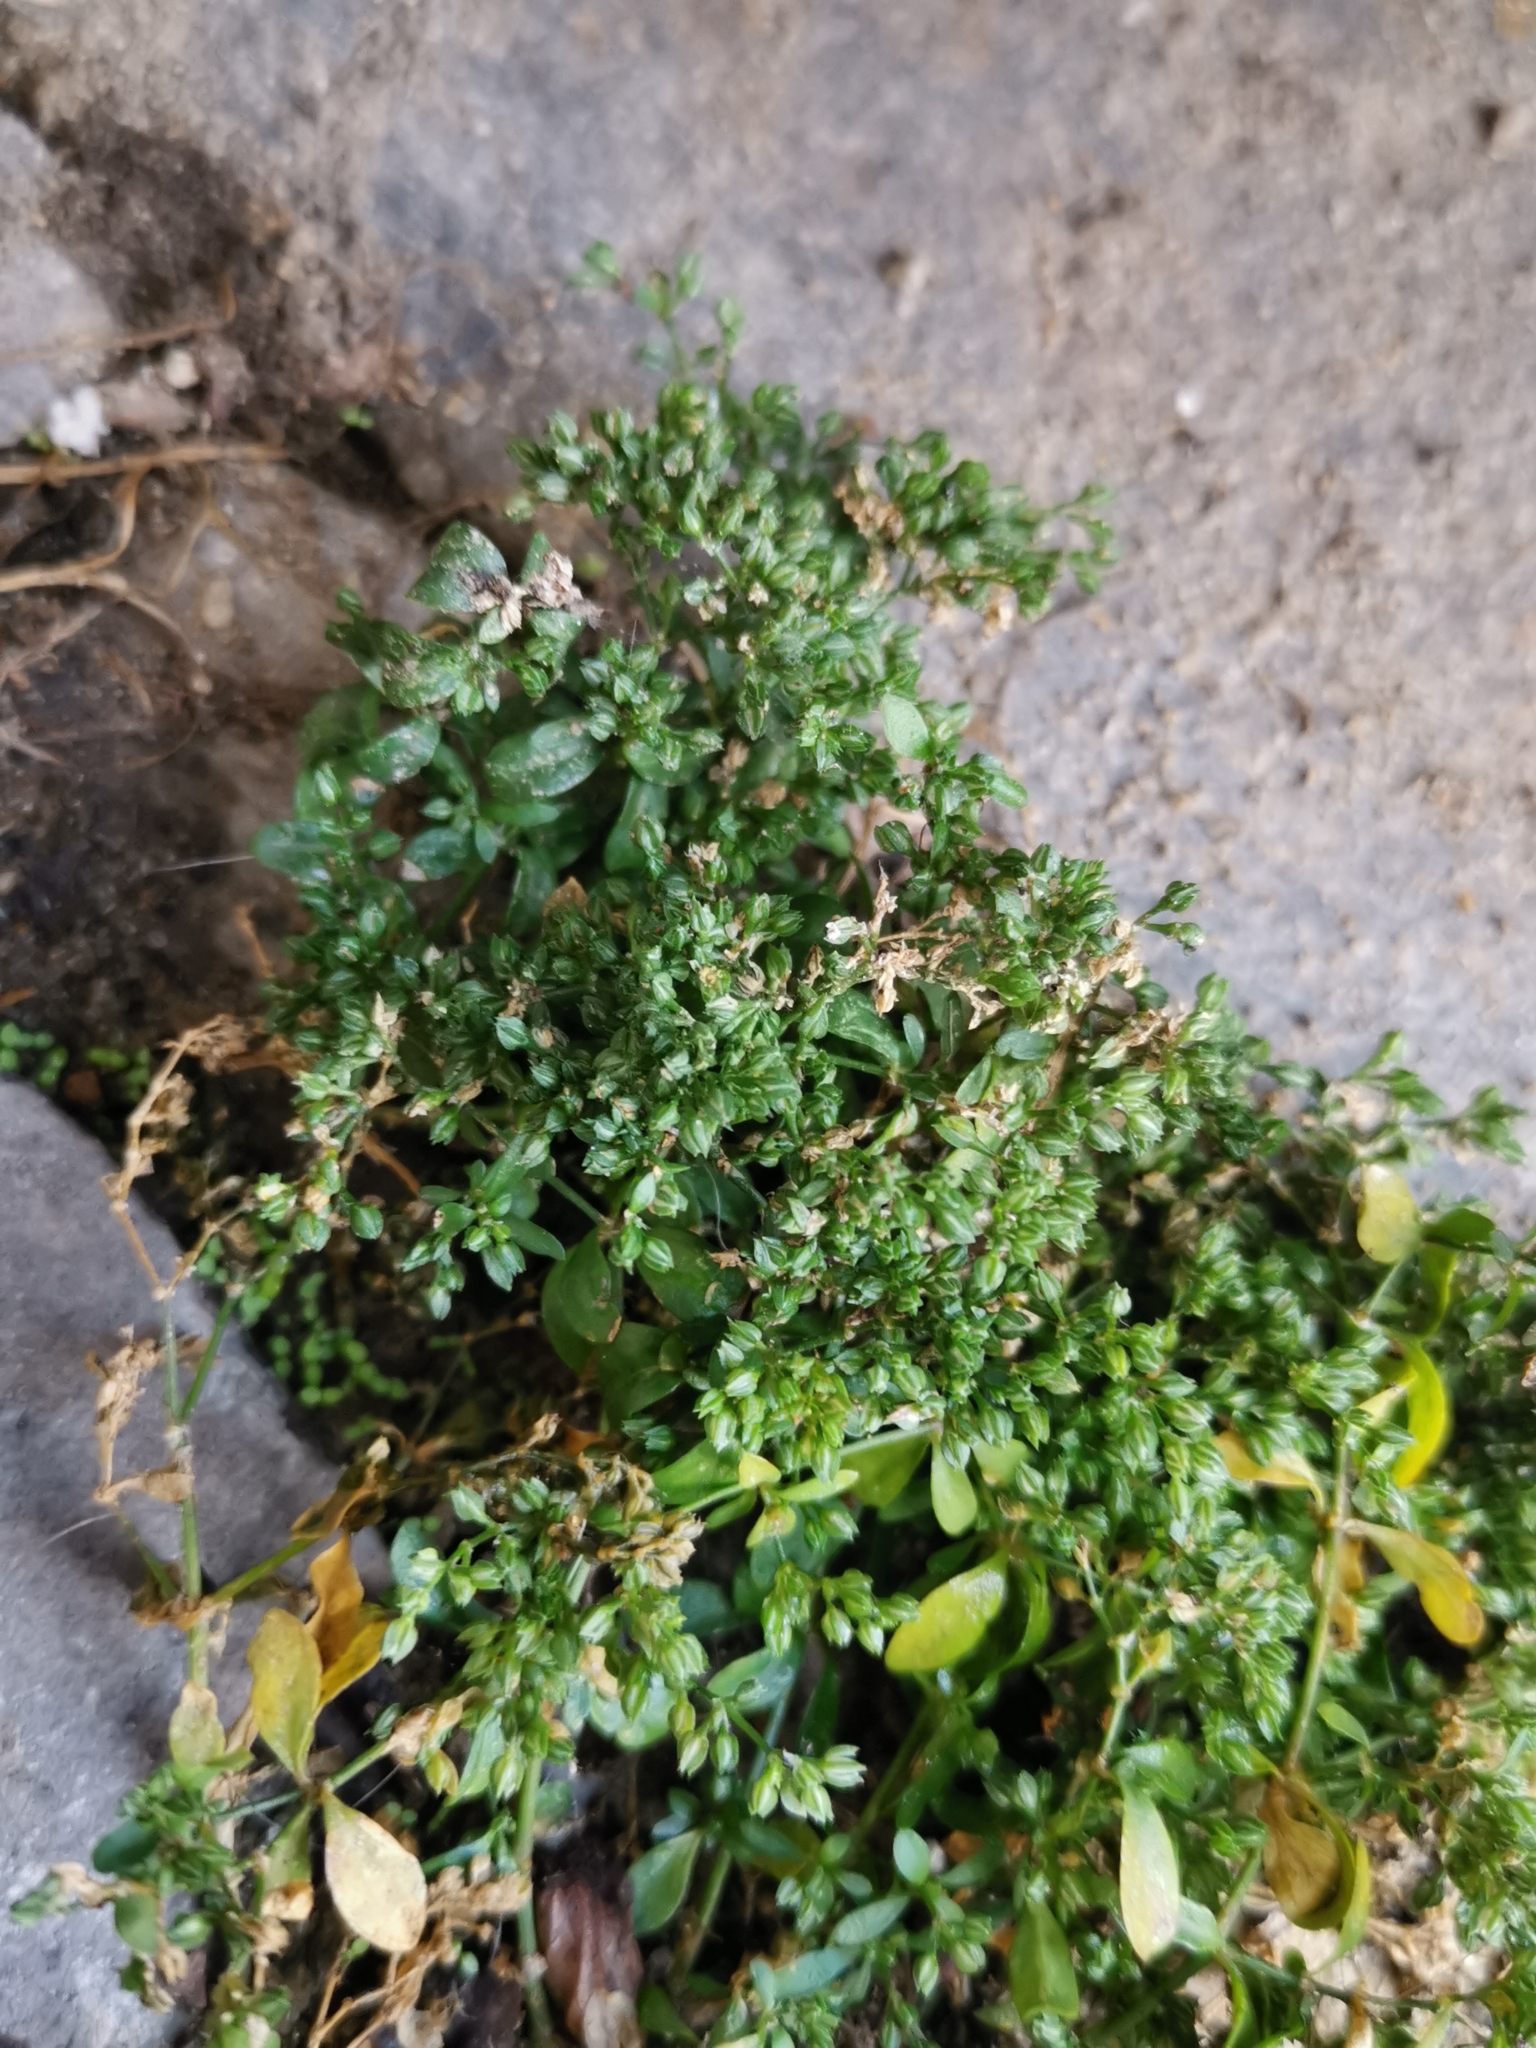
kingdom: Plantae
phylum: Tracheophyta
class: Magnoliopsida
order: Caryophyllales
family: Caryophyllaceae
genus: Polycarpon
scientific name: Polycarpon tetraphyllum
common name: Four-leaved all-seed
